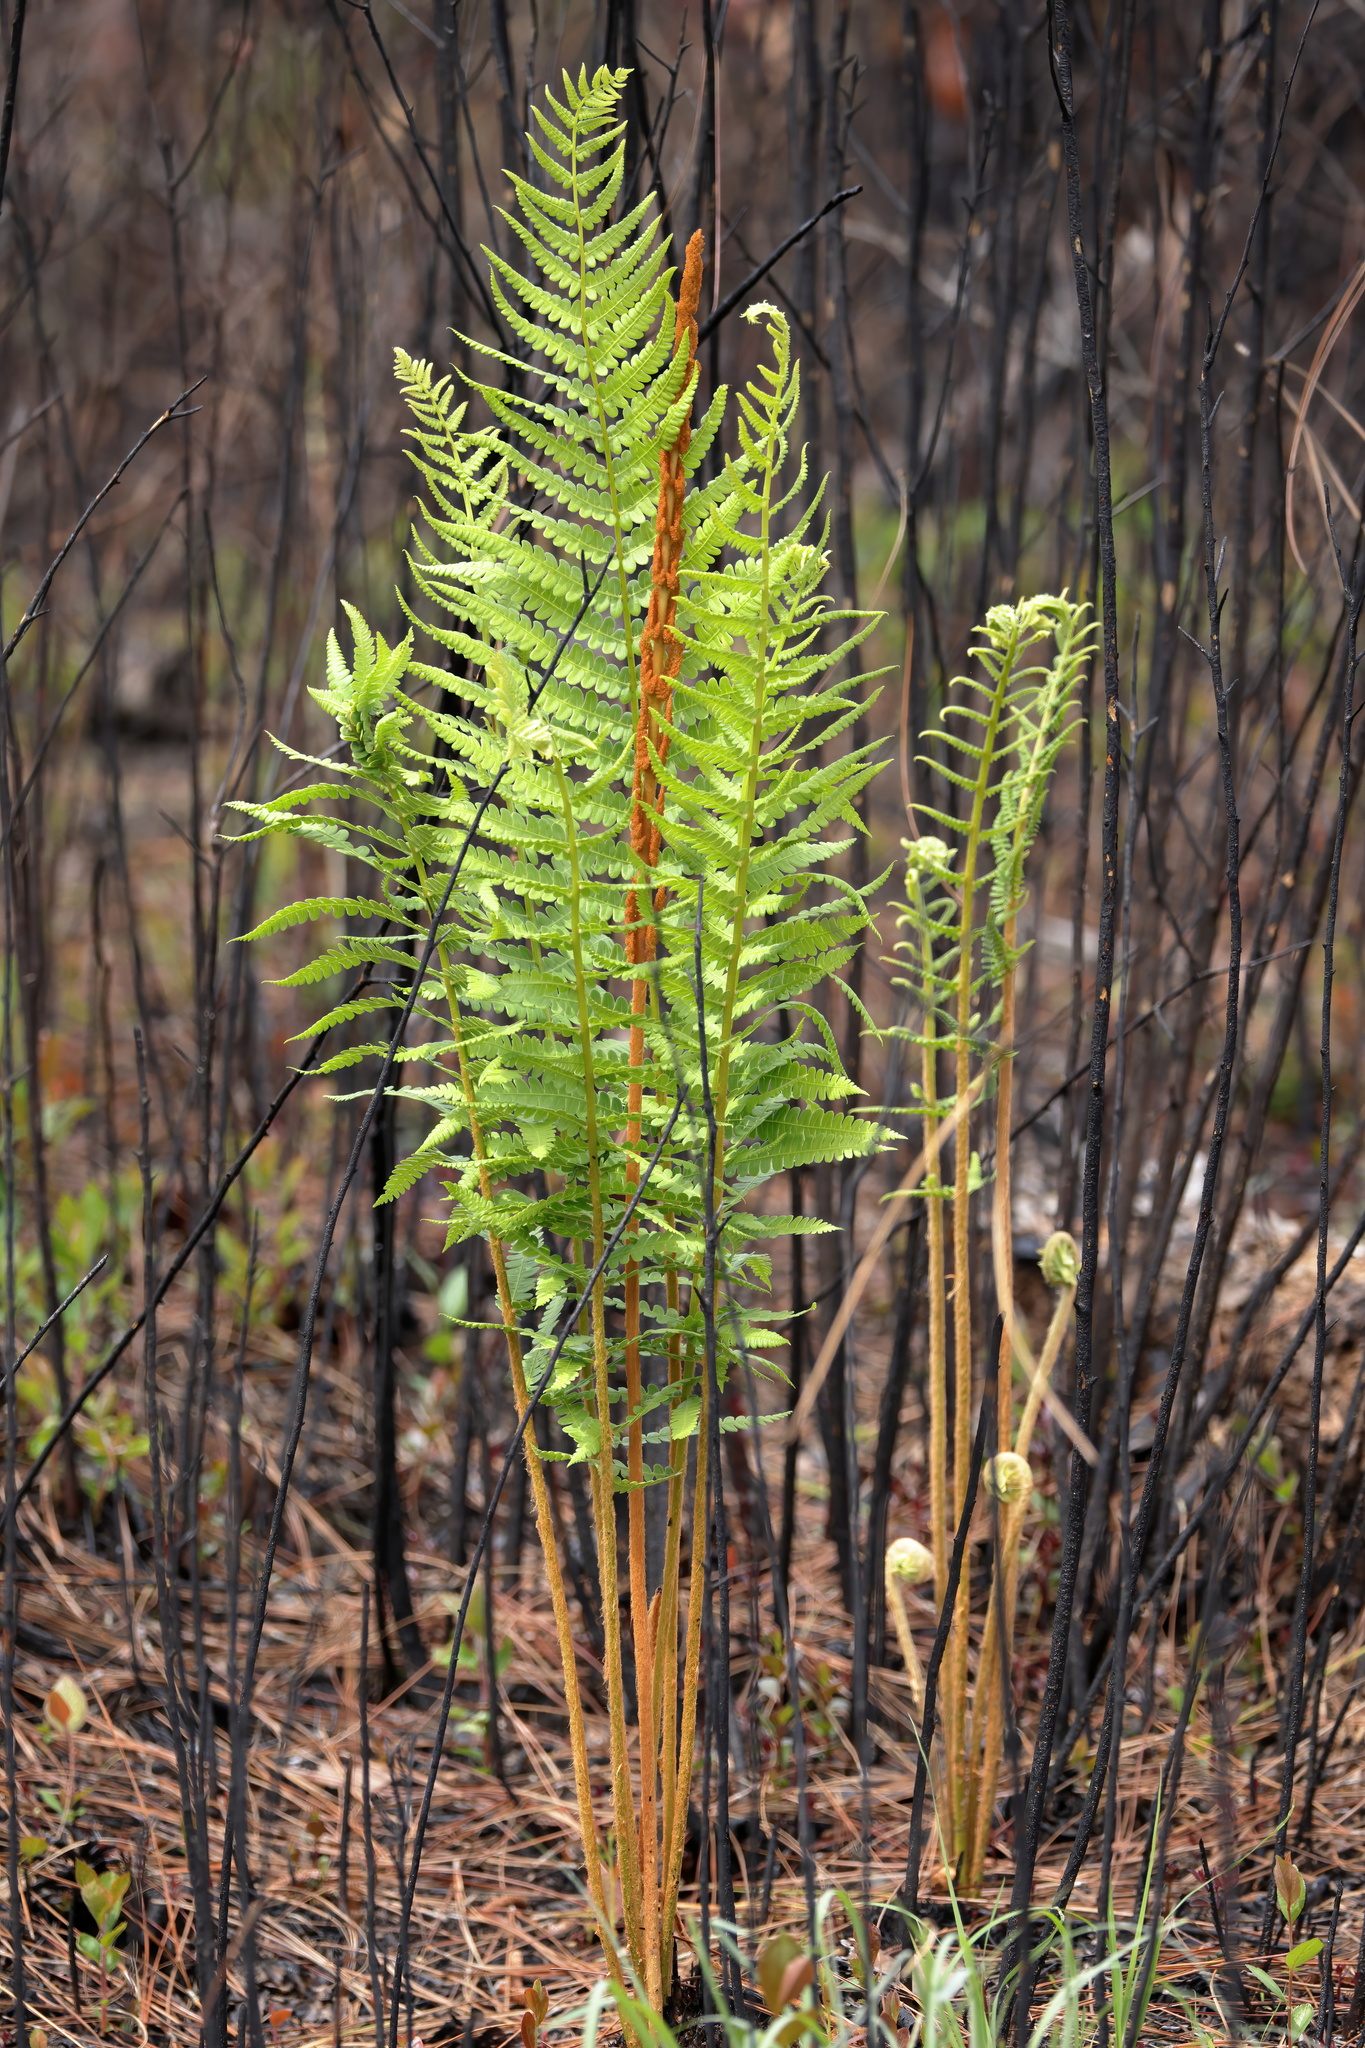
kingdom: Plantae
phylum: Tracheophyta
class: Polypodiopsida
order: Osmundales
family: Osmundaceae
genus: Osmundastrum
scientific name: Osmundastrum cinnamomeum
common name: Cinnamon fern
